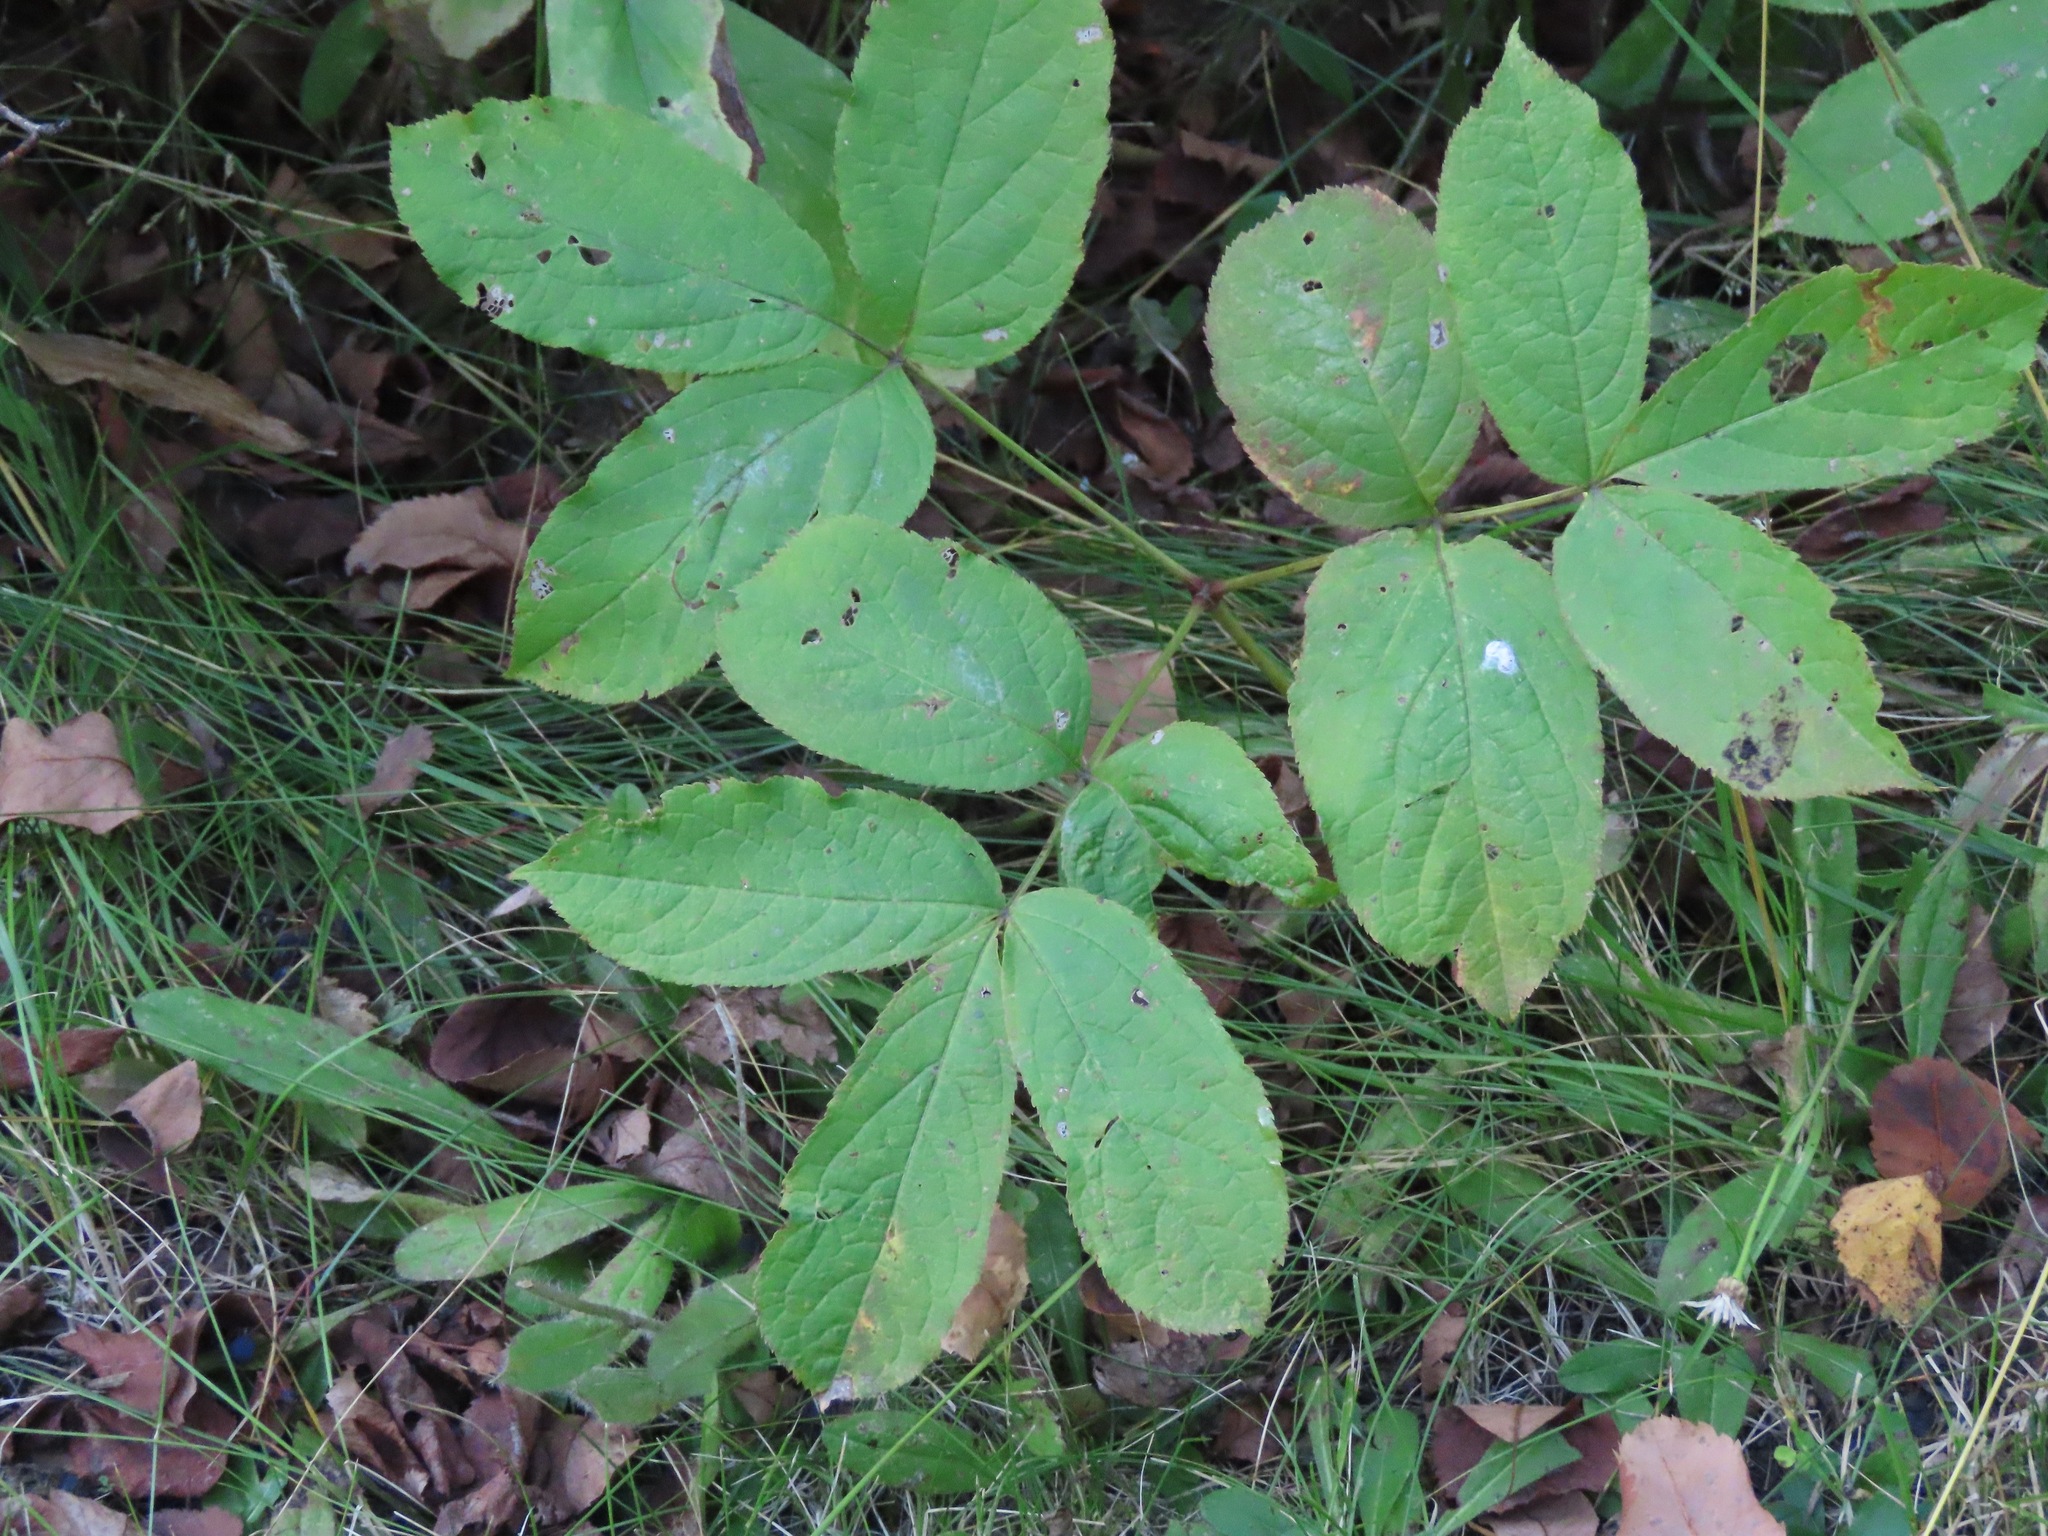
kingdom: Plantae
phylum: Tracheophyta
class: Magnoliopsida
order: Apiales
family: Araliaceae
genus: Aralia
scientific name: Aralia nudicaulis
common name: Wild sarsaparilla
